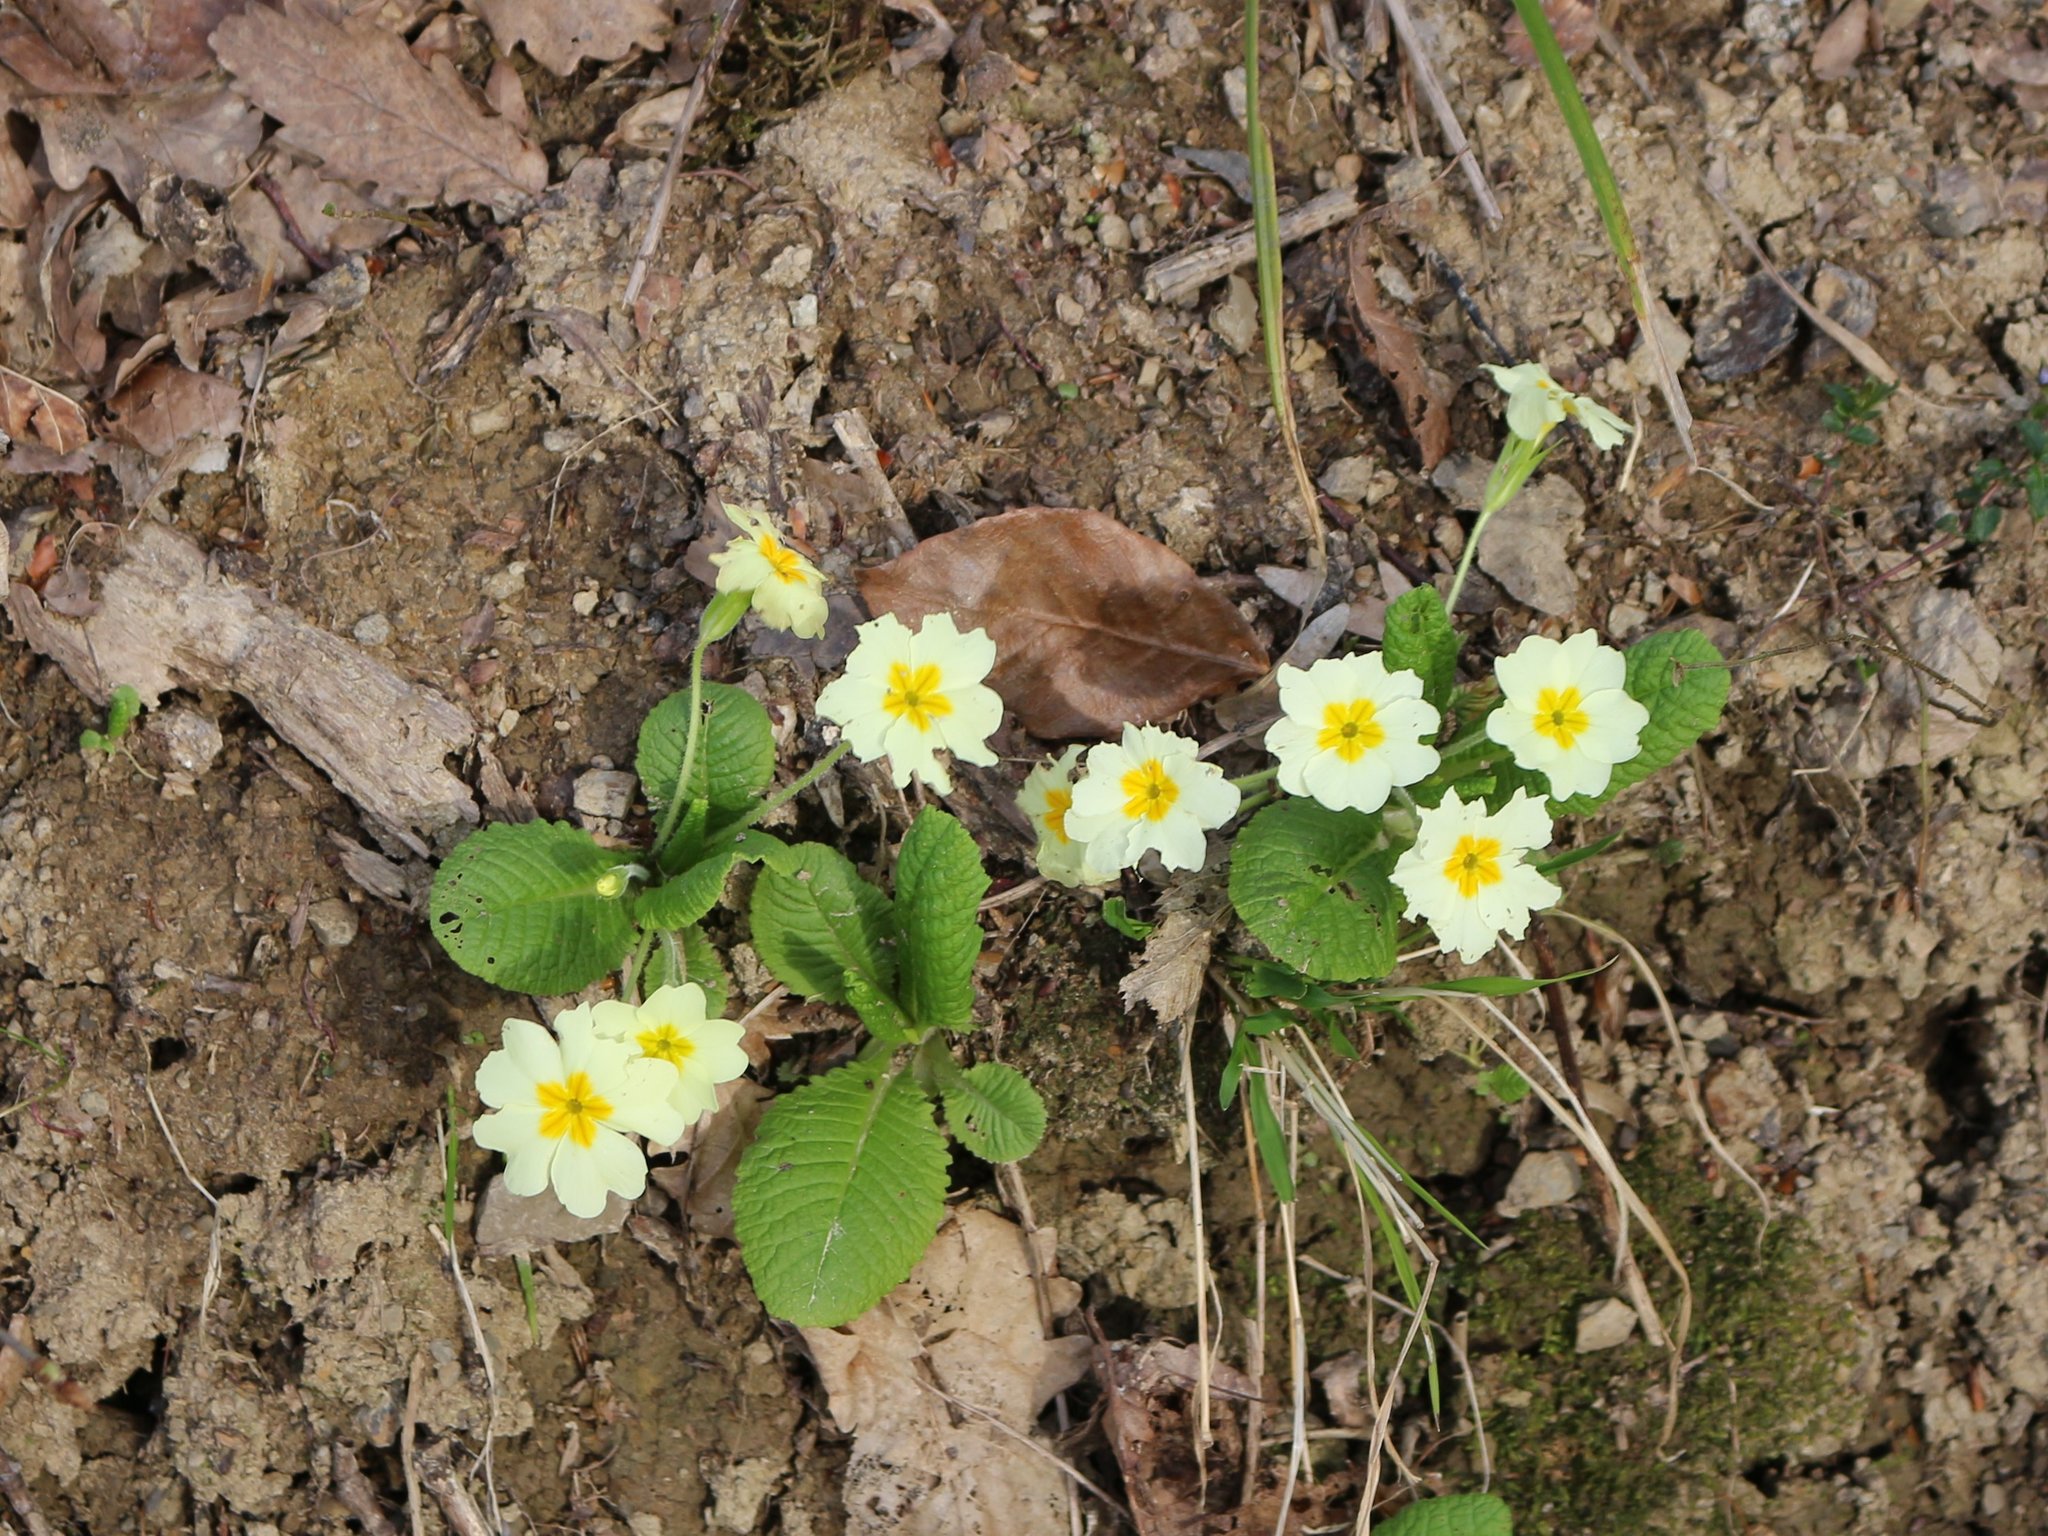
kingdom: Plantae
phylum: Tracheophyta
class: Magnoliopsida
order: Ericales
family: Primulaceae
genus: Primula
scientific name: Primula vulgaris
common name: Primrose
